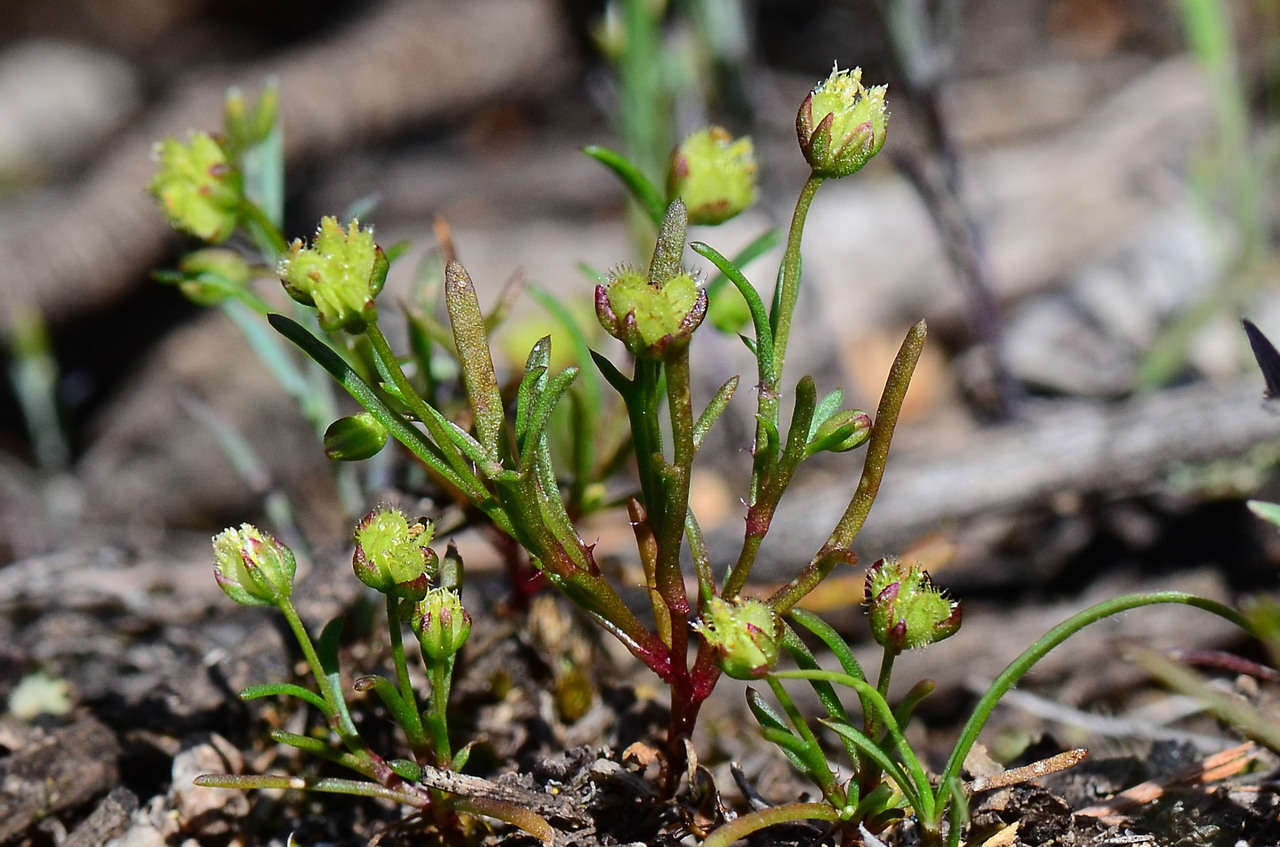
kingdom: Plantae
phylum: Tracheophyta
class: Magnoliopsida
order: Asterales
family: Asteraceae
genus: Brachyscome
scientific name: Brachyscome perpusilla
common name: Tiny daisy
